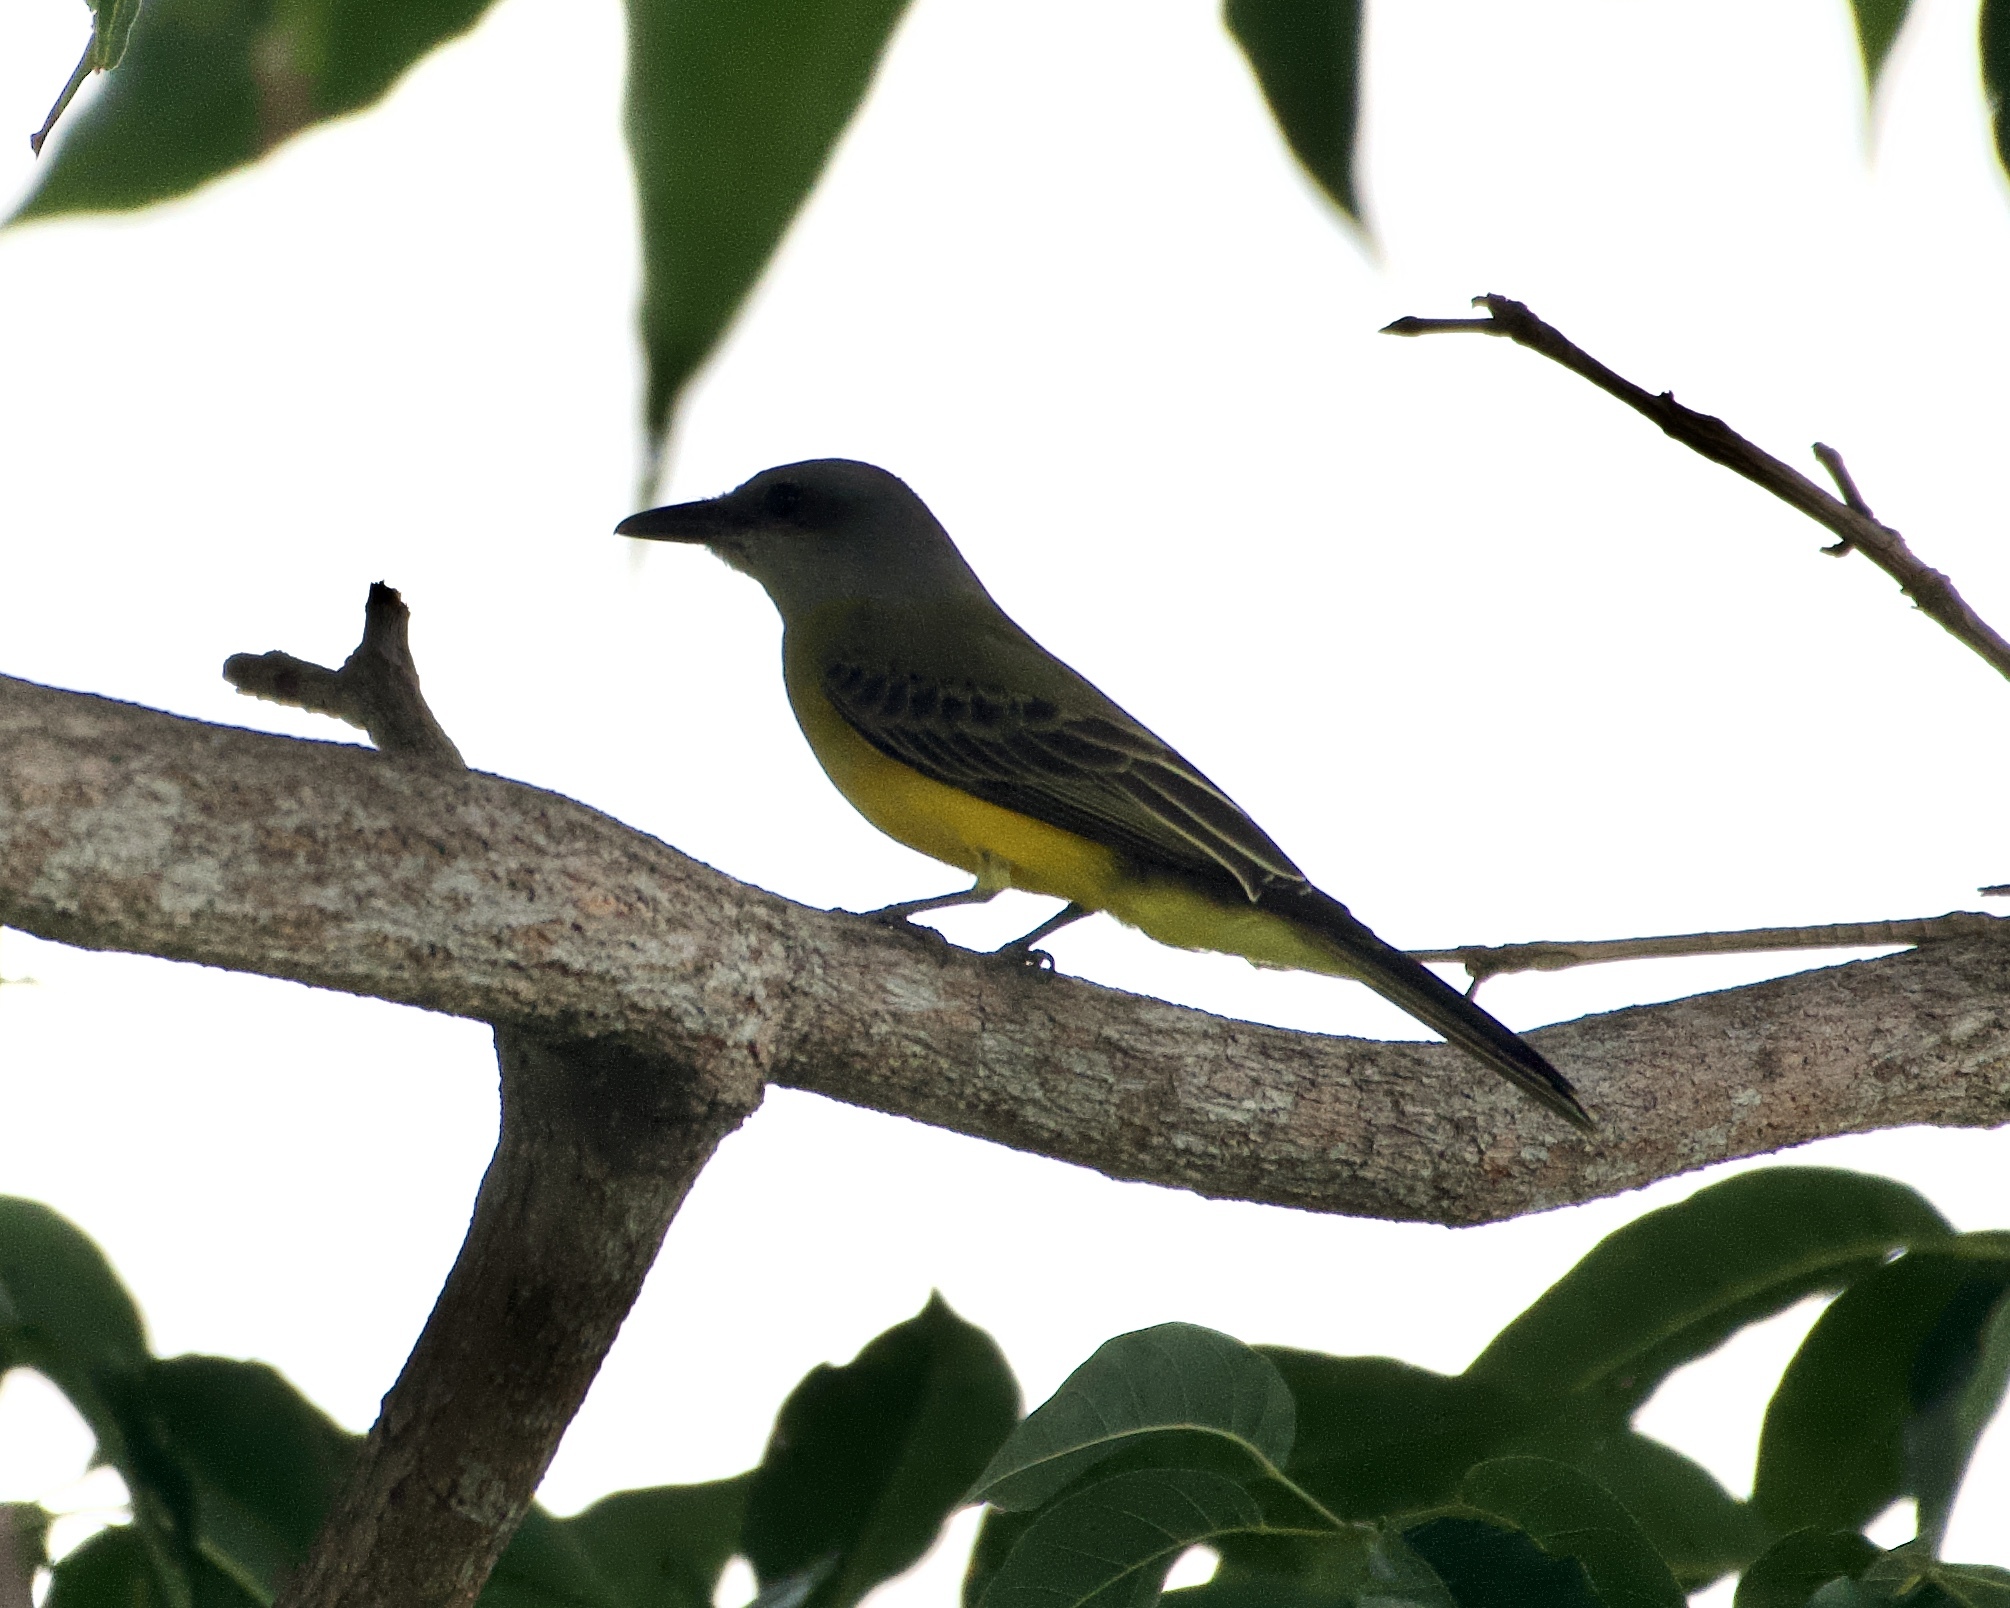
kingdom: Animalia
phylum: Chordata
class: Aves
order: Passeriformes
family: Tyrannidae
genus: Tyrannus
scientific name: Tyrannus melancholicus
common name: Tropical kingbird
